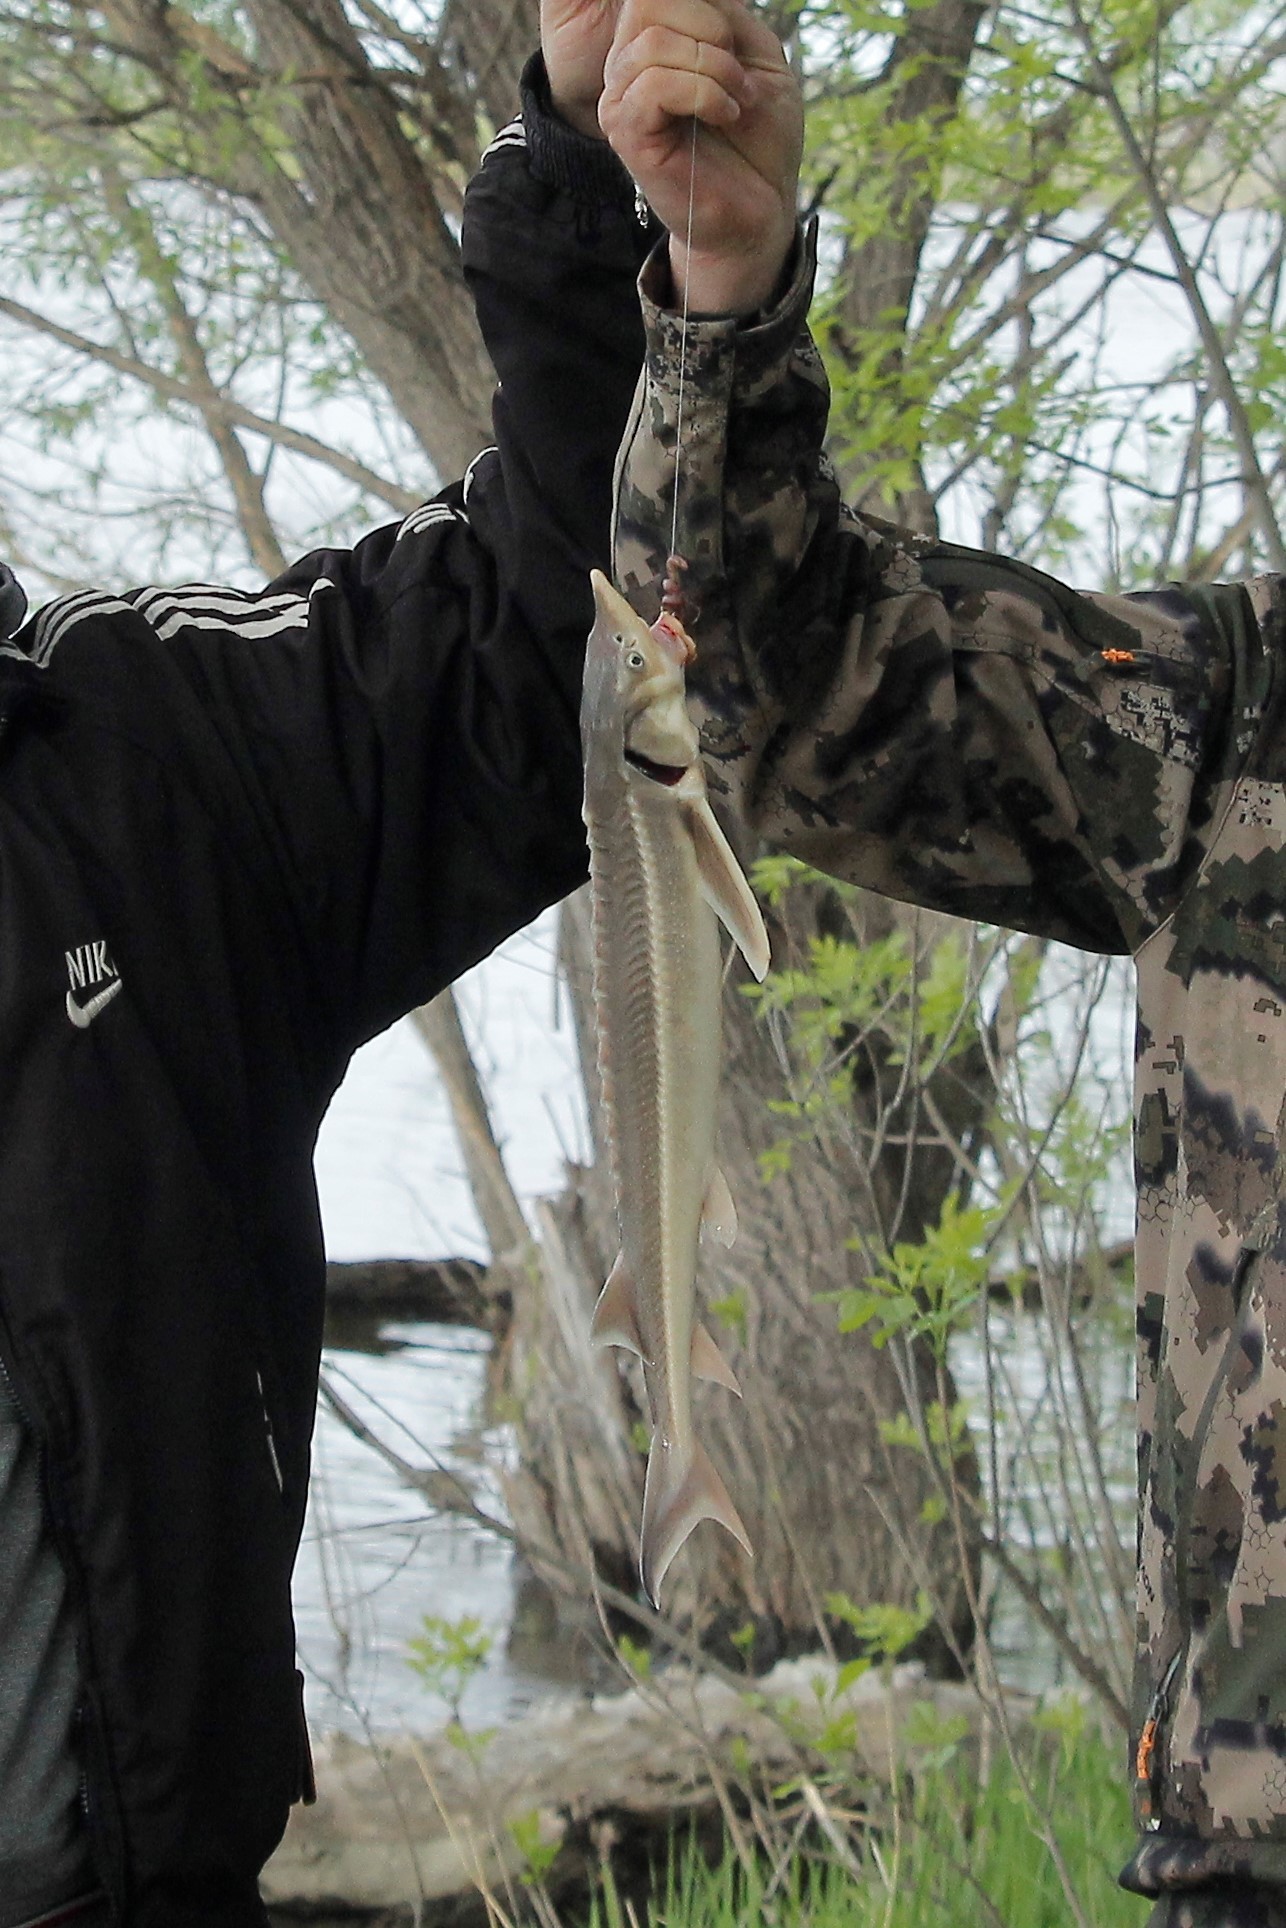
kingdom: Animalia
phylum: Chordata
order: Acipenseriformes
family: Acipenseridae
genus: Acipenser
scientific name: Acipenser ruthenus
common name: Sterlet
